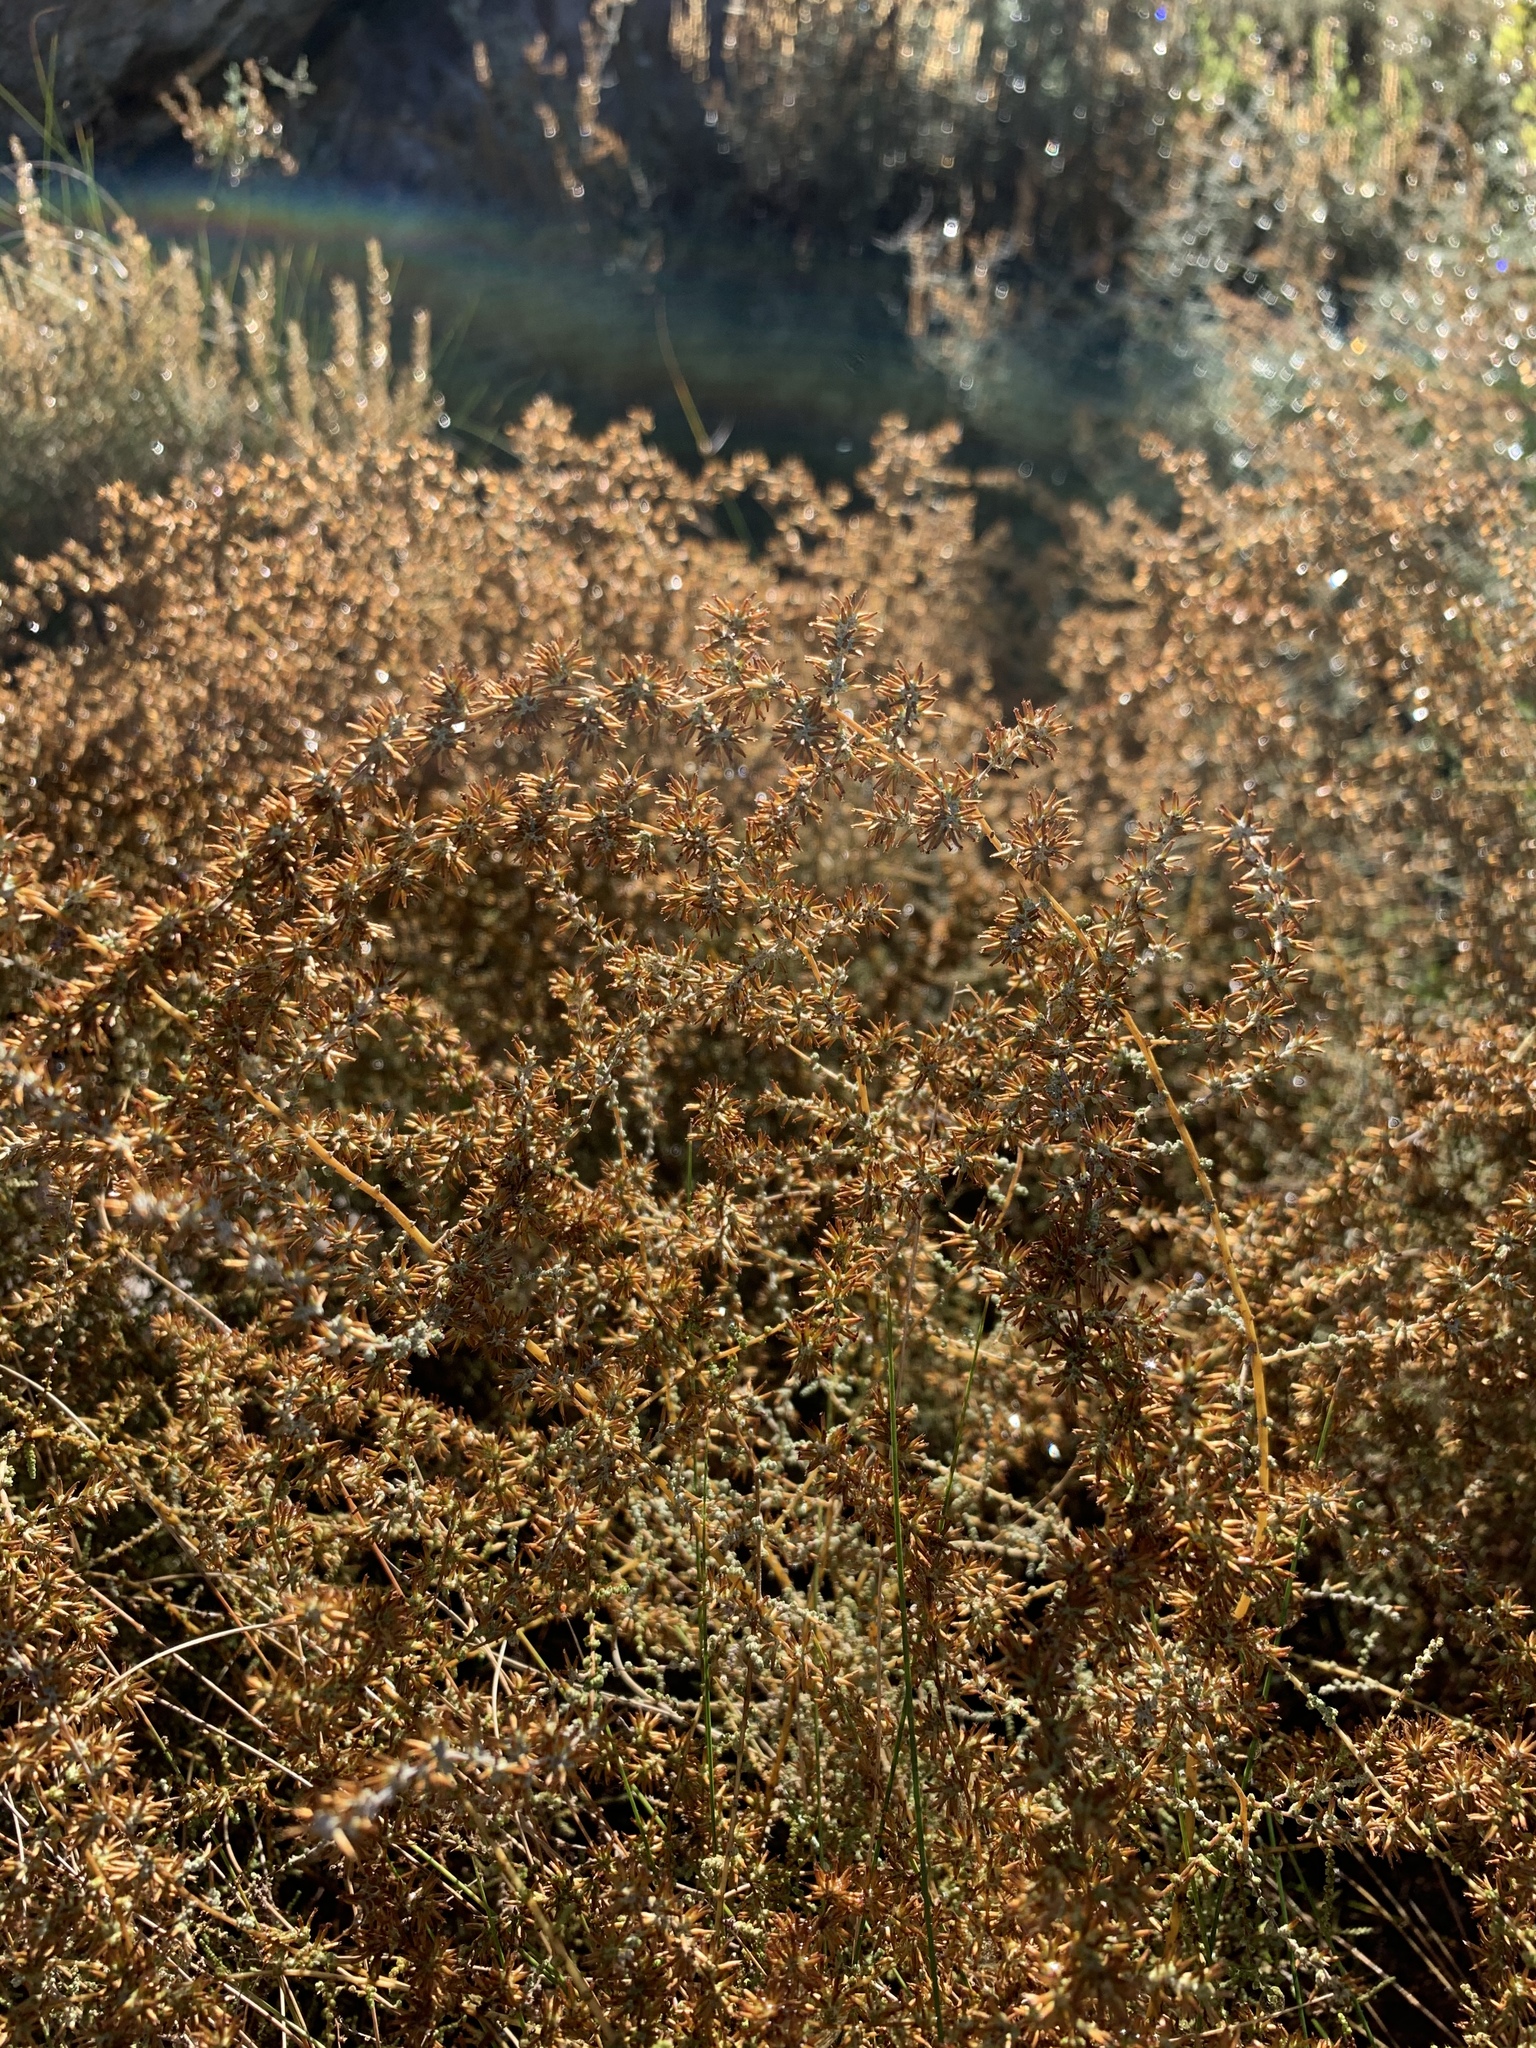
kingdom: Plantae
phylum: Tracheophyta
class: Magnoliopsida
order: Asterales
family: Asteraceae
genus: Seriphium
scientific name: Seriphium plumosum
